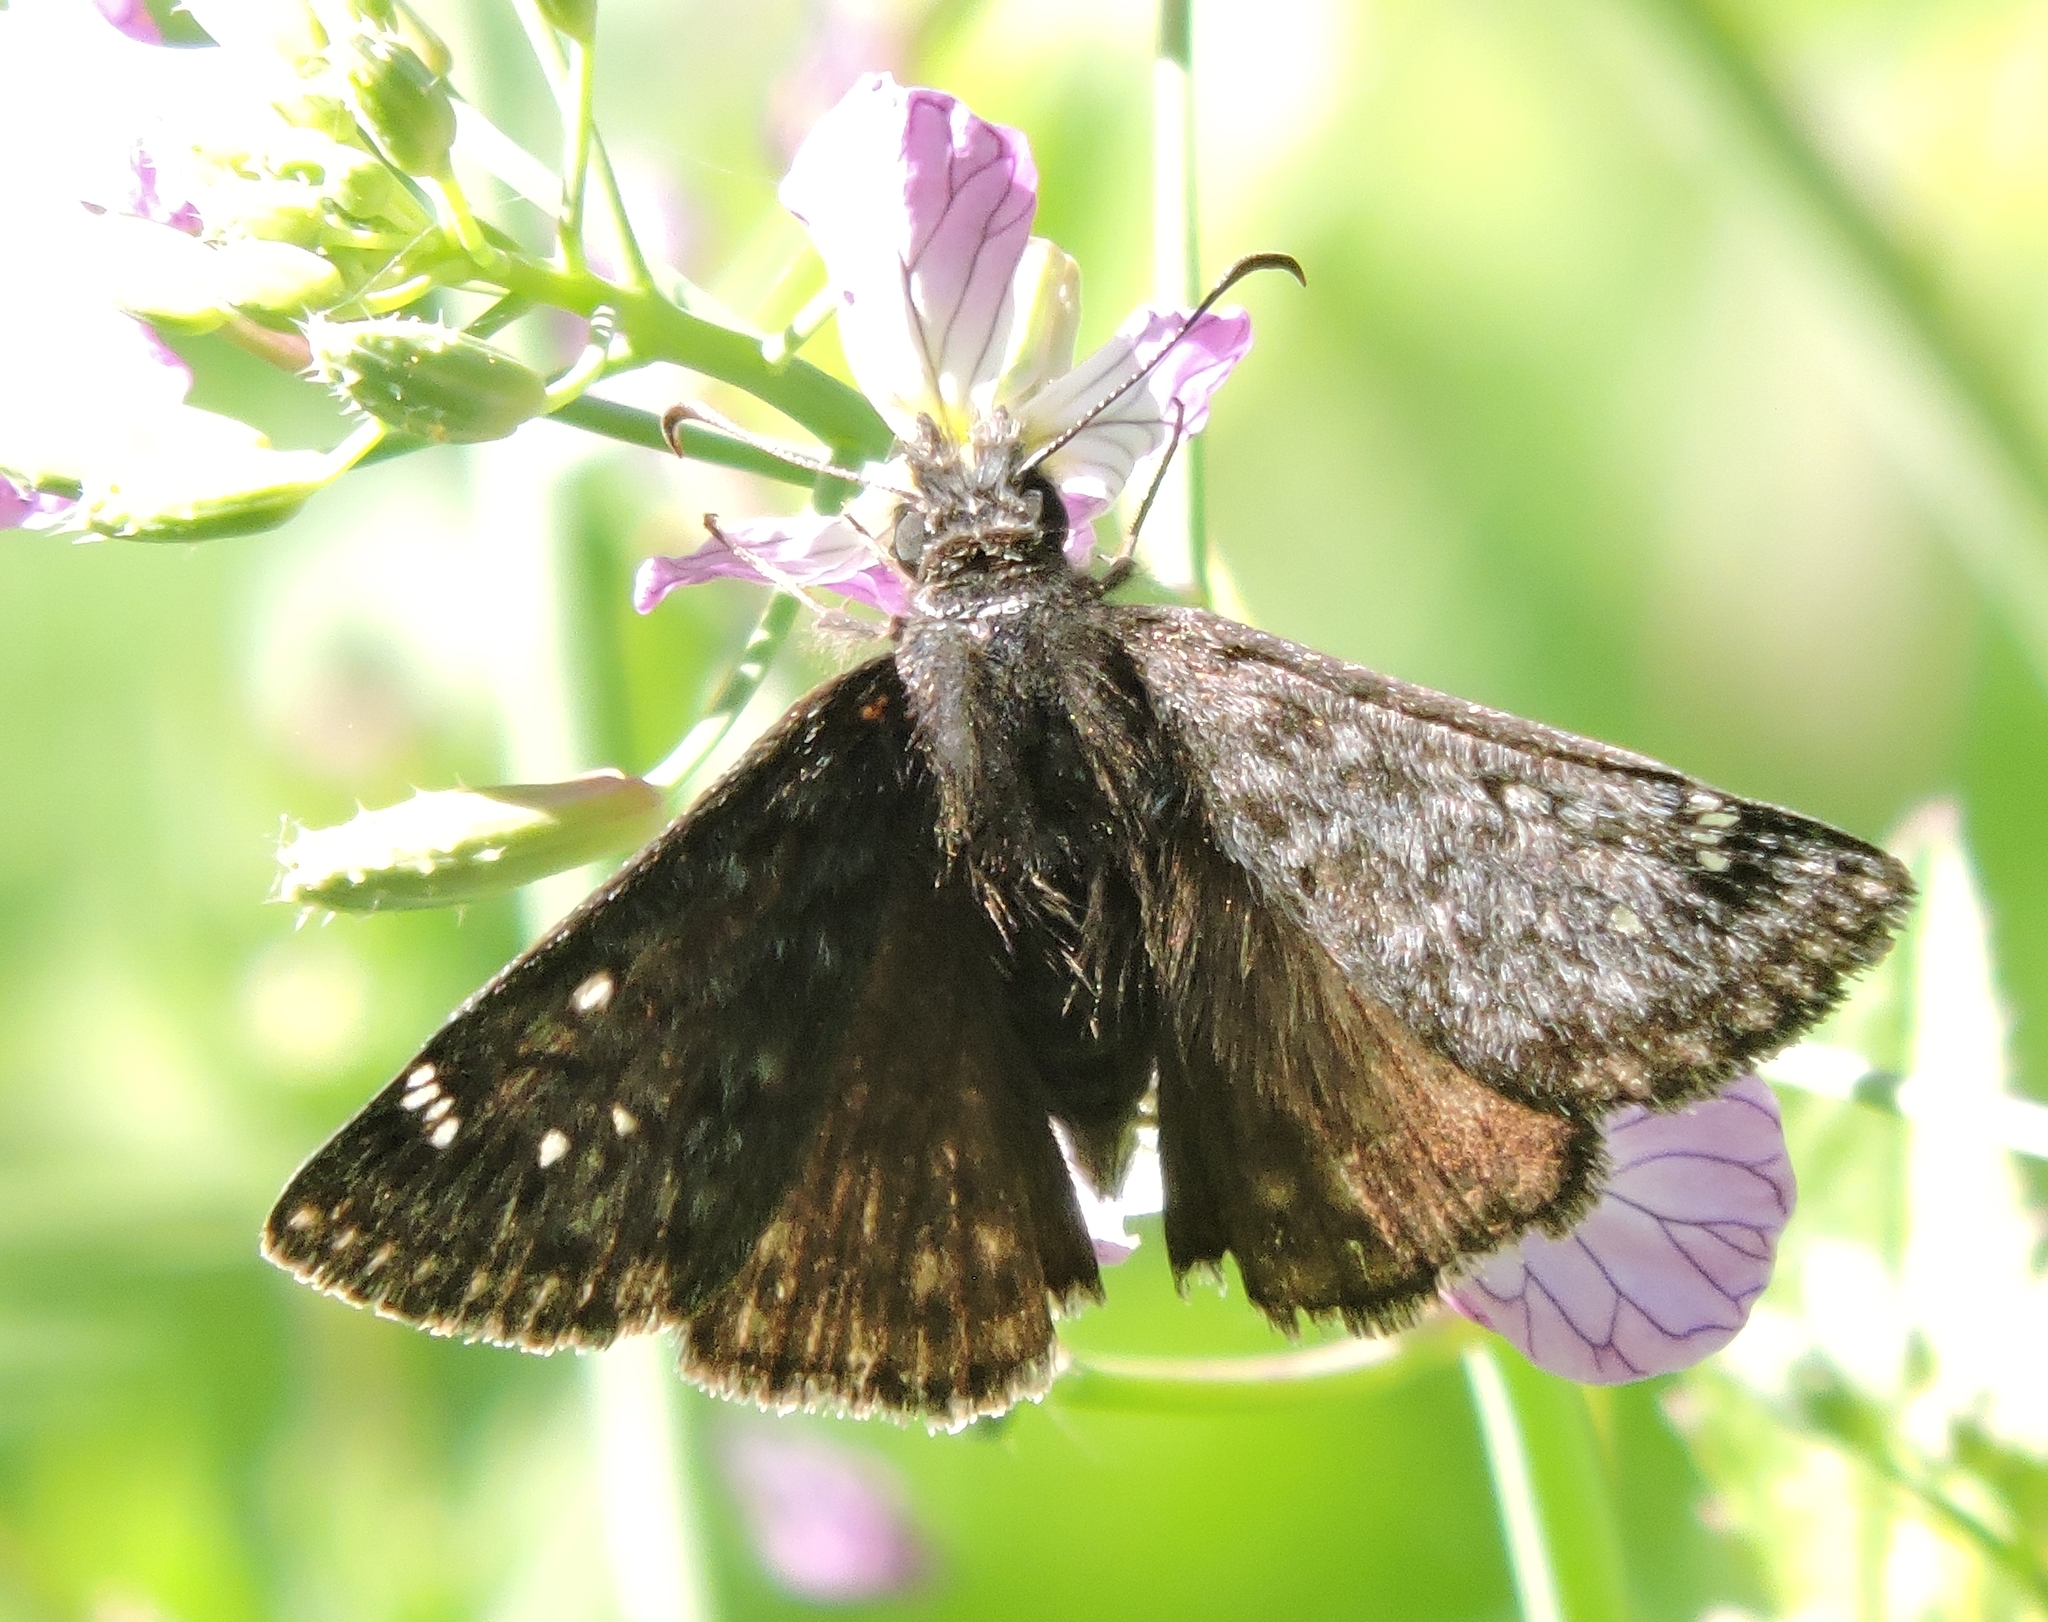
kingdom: Animalia
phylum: Arthropoda
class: Insecta
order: Lepidoptera
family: Hesperiidae
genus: Erynnis
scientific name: Erynnis propertius
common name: Propertius duskywing
